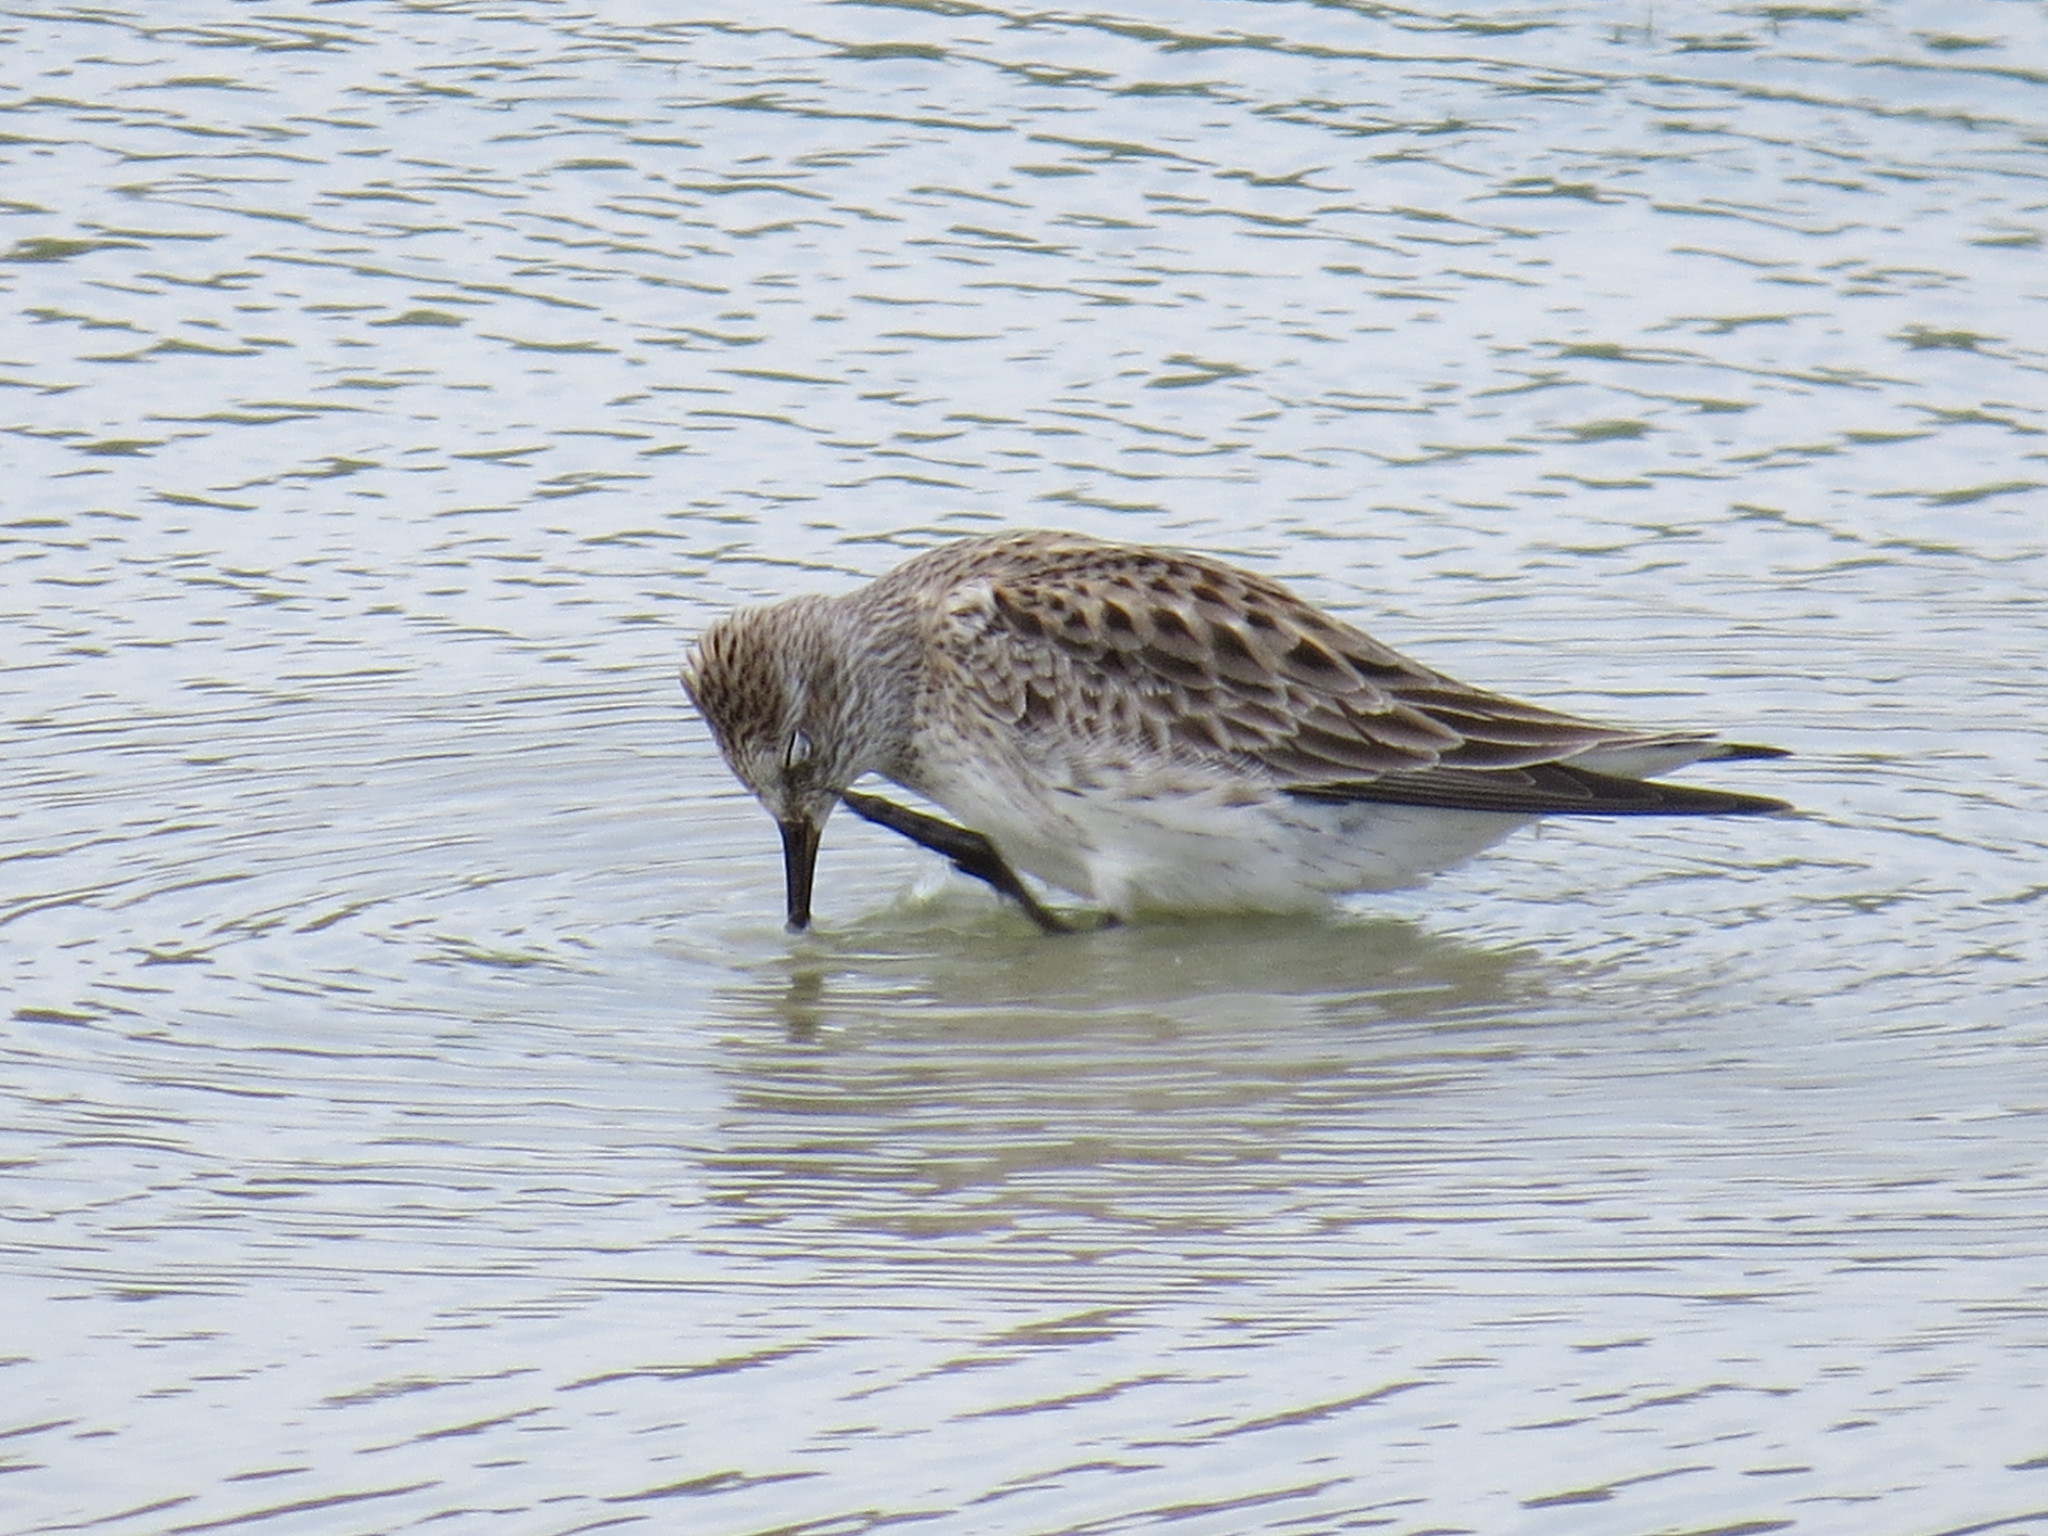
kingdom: Animalia
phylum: Chordata
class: Aves
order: Charadriiformes
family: Scolopacidae
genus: Calidris
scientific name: Calidris fuscicollis
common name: White-rumped sandpiper
